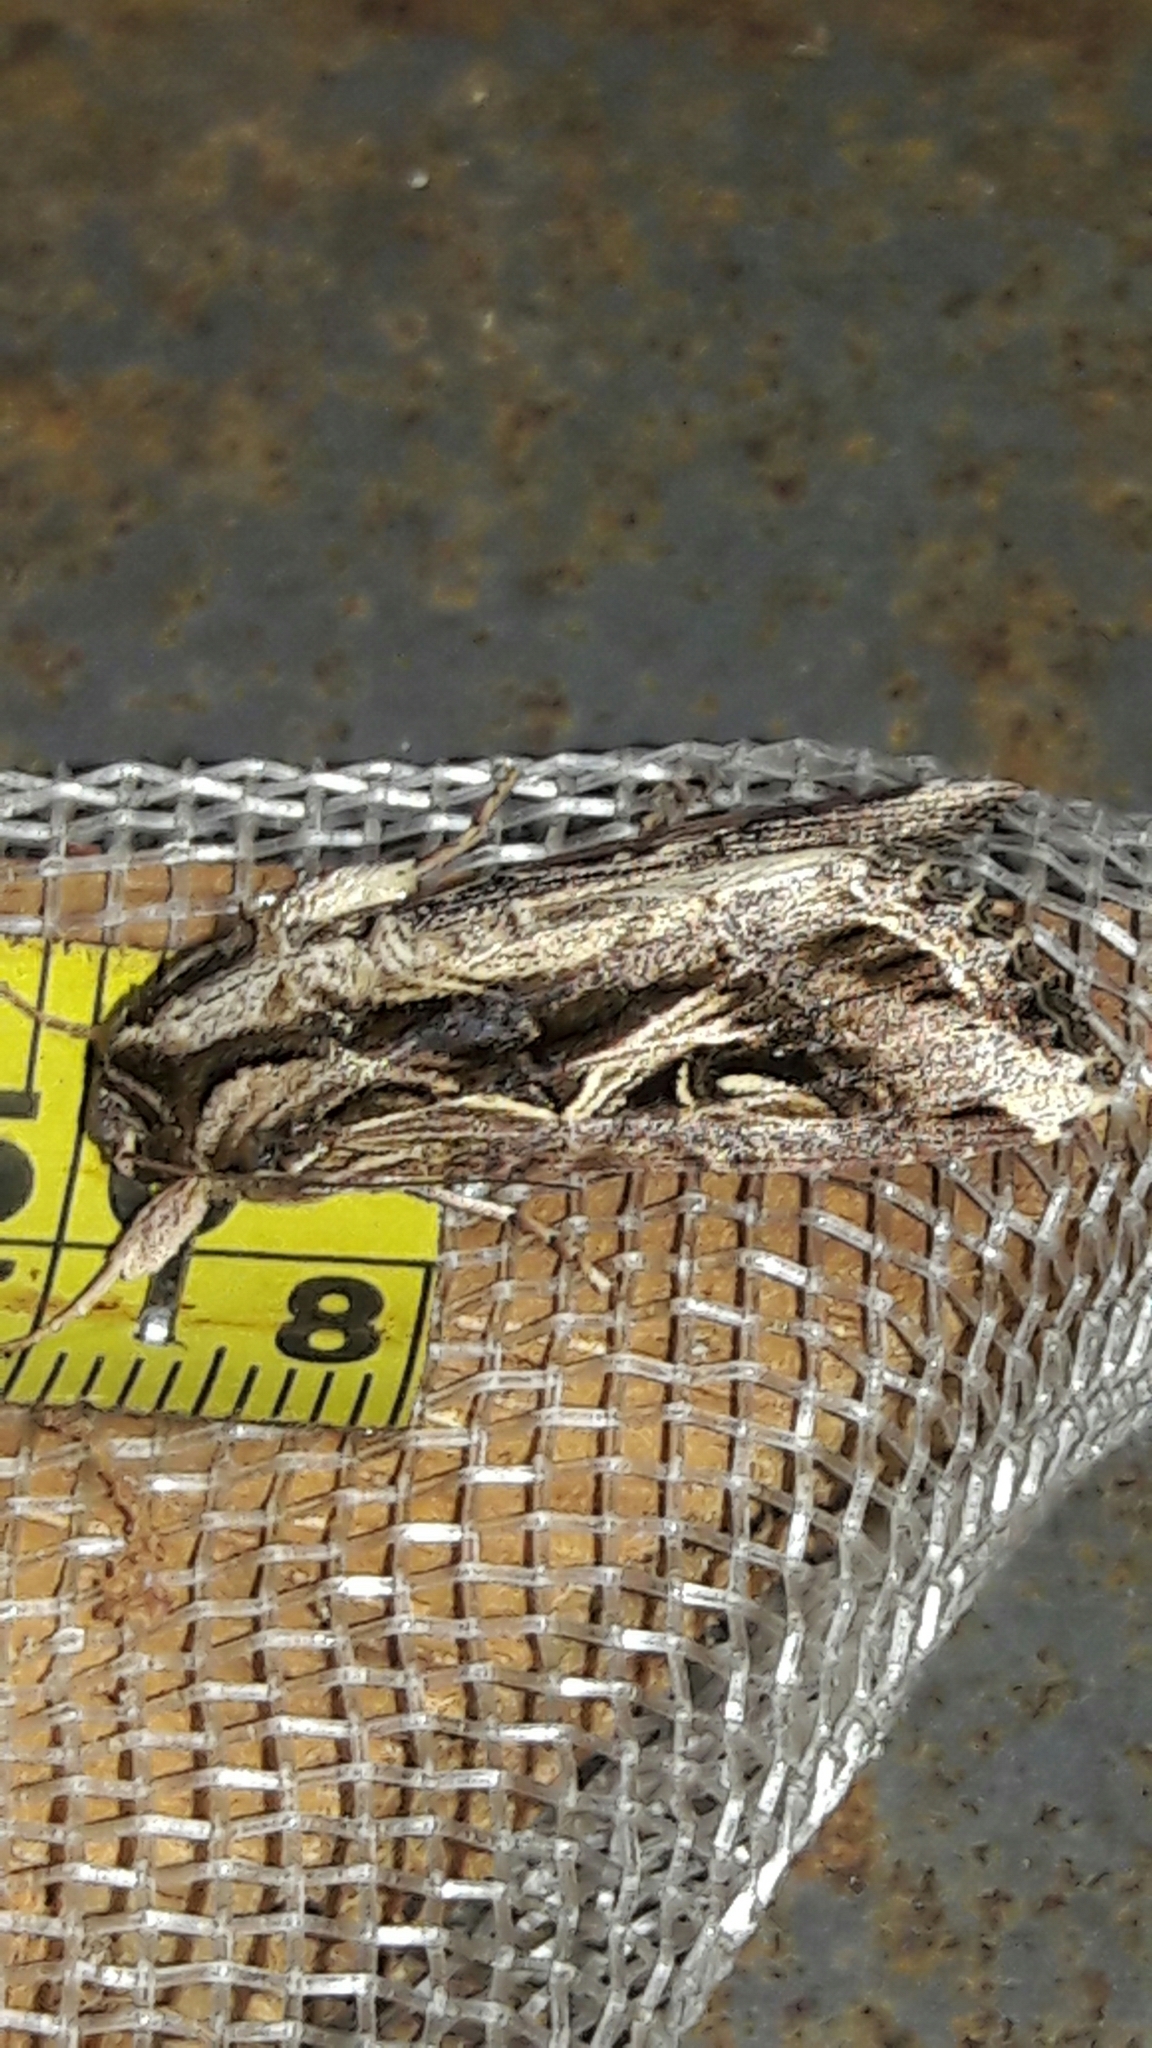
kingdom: Animalia
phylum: Arthropoda
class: Insecta
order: Lepidoptera
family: Noctuidae
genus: Spodoptera
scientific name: Spodoptera dolichos
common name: Sweetpotato armyworm
